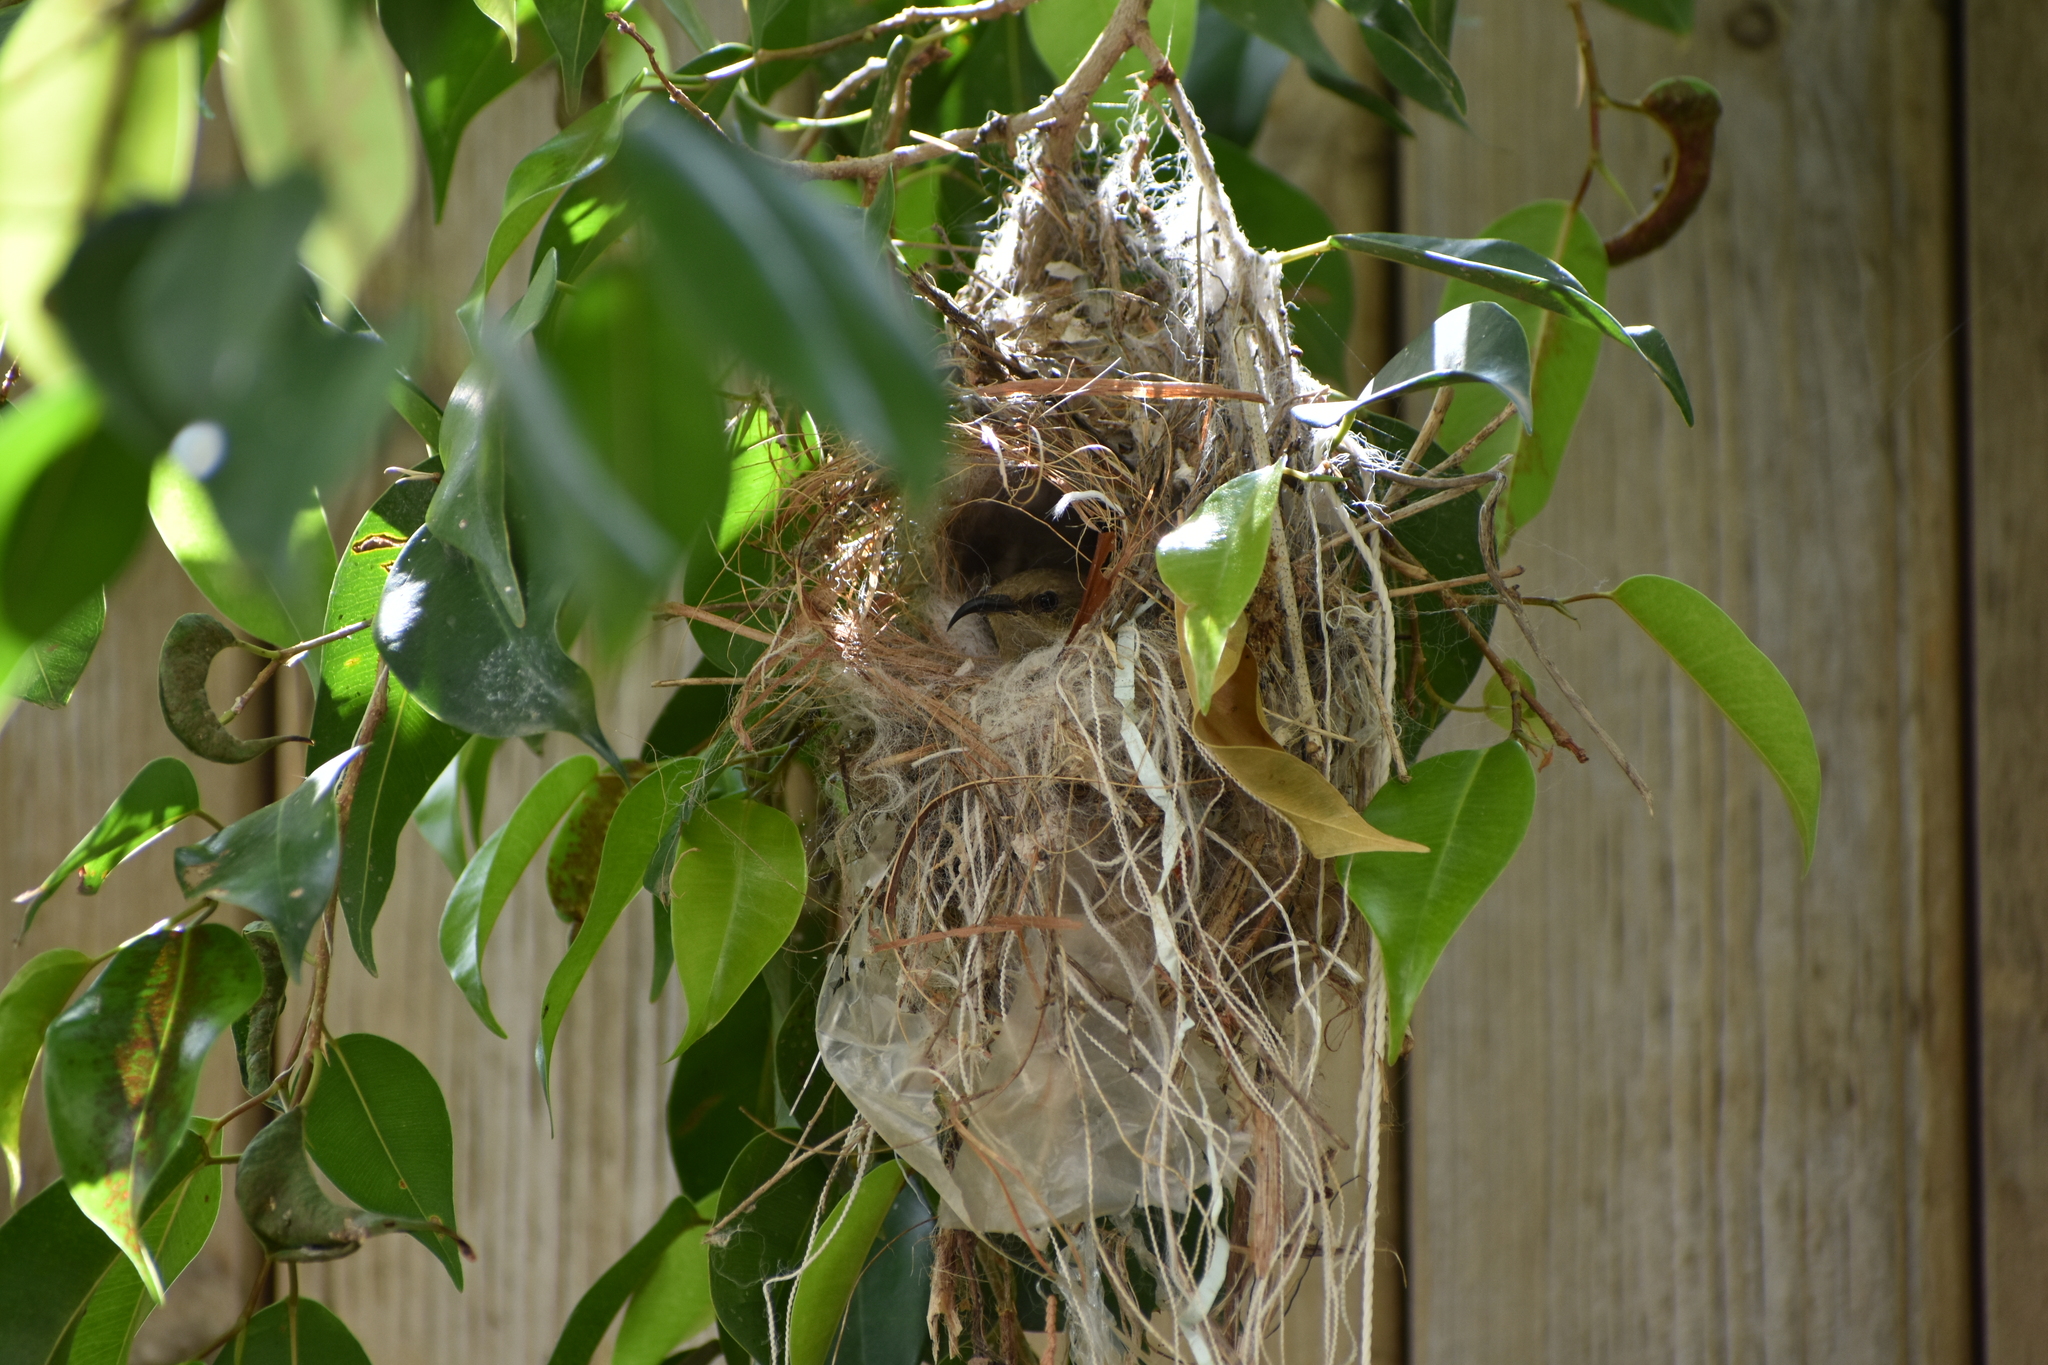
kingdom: Animalia
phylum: Chordata
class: Aves
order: Passeriformes
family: Nectariniidae
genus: Cinnyris
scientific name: Cinnyris osea
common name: Palestine sunbird
